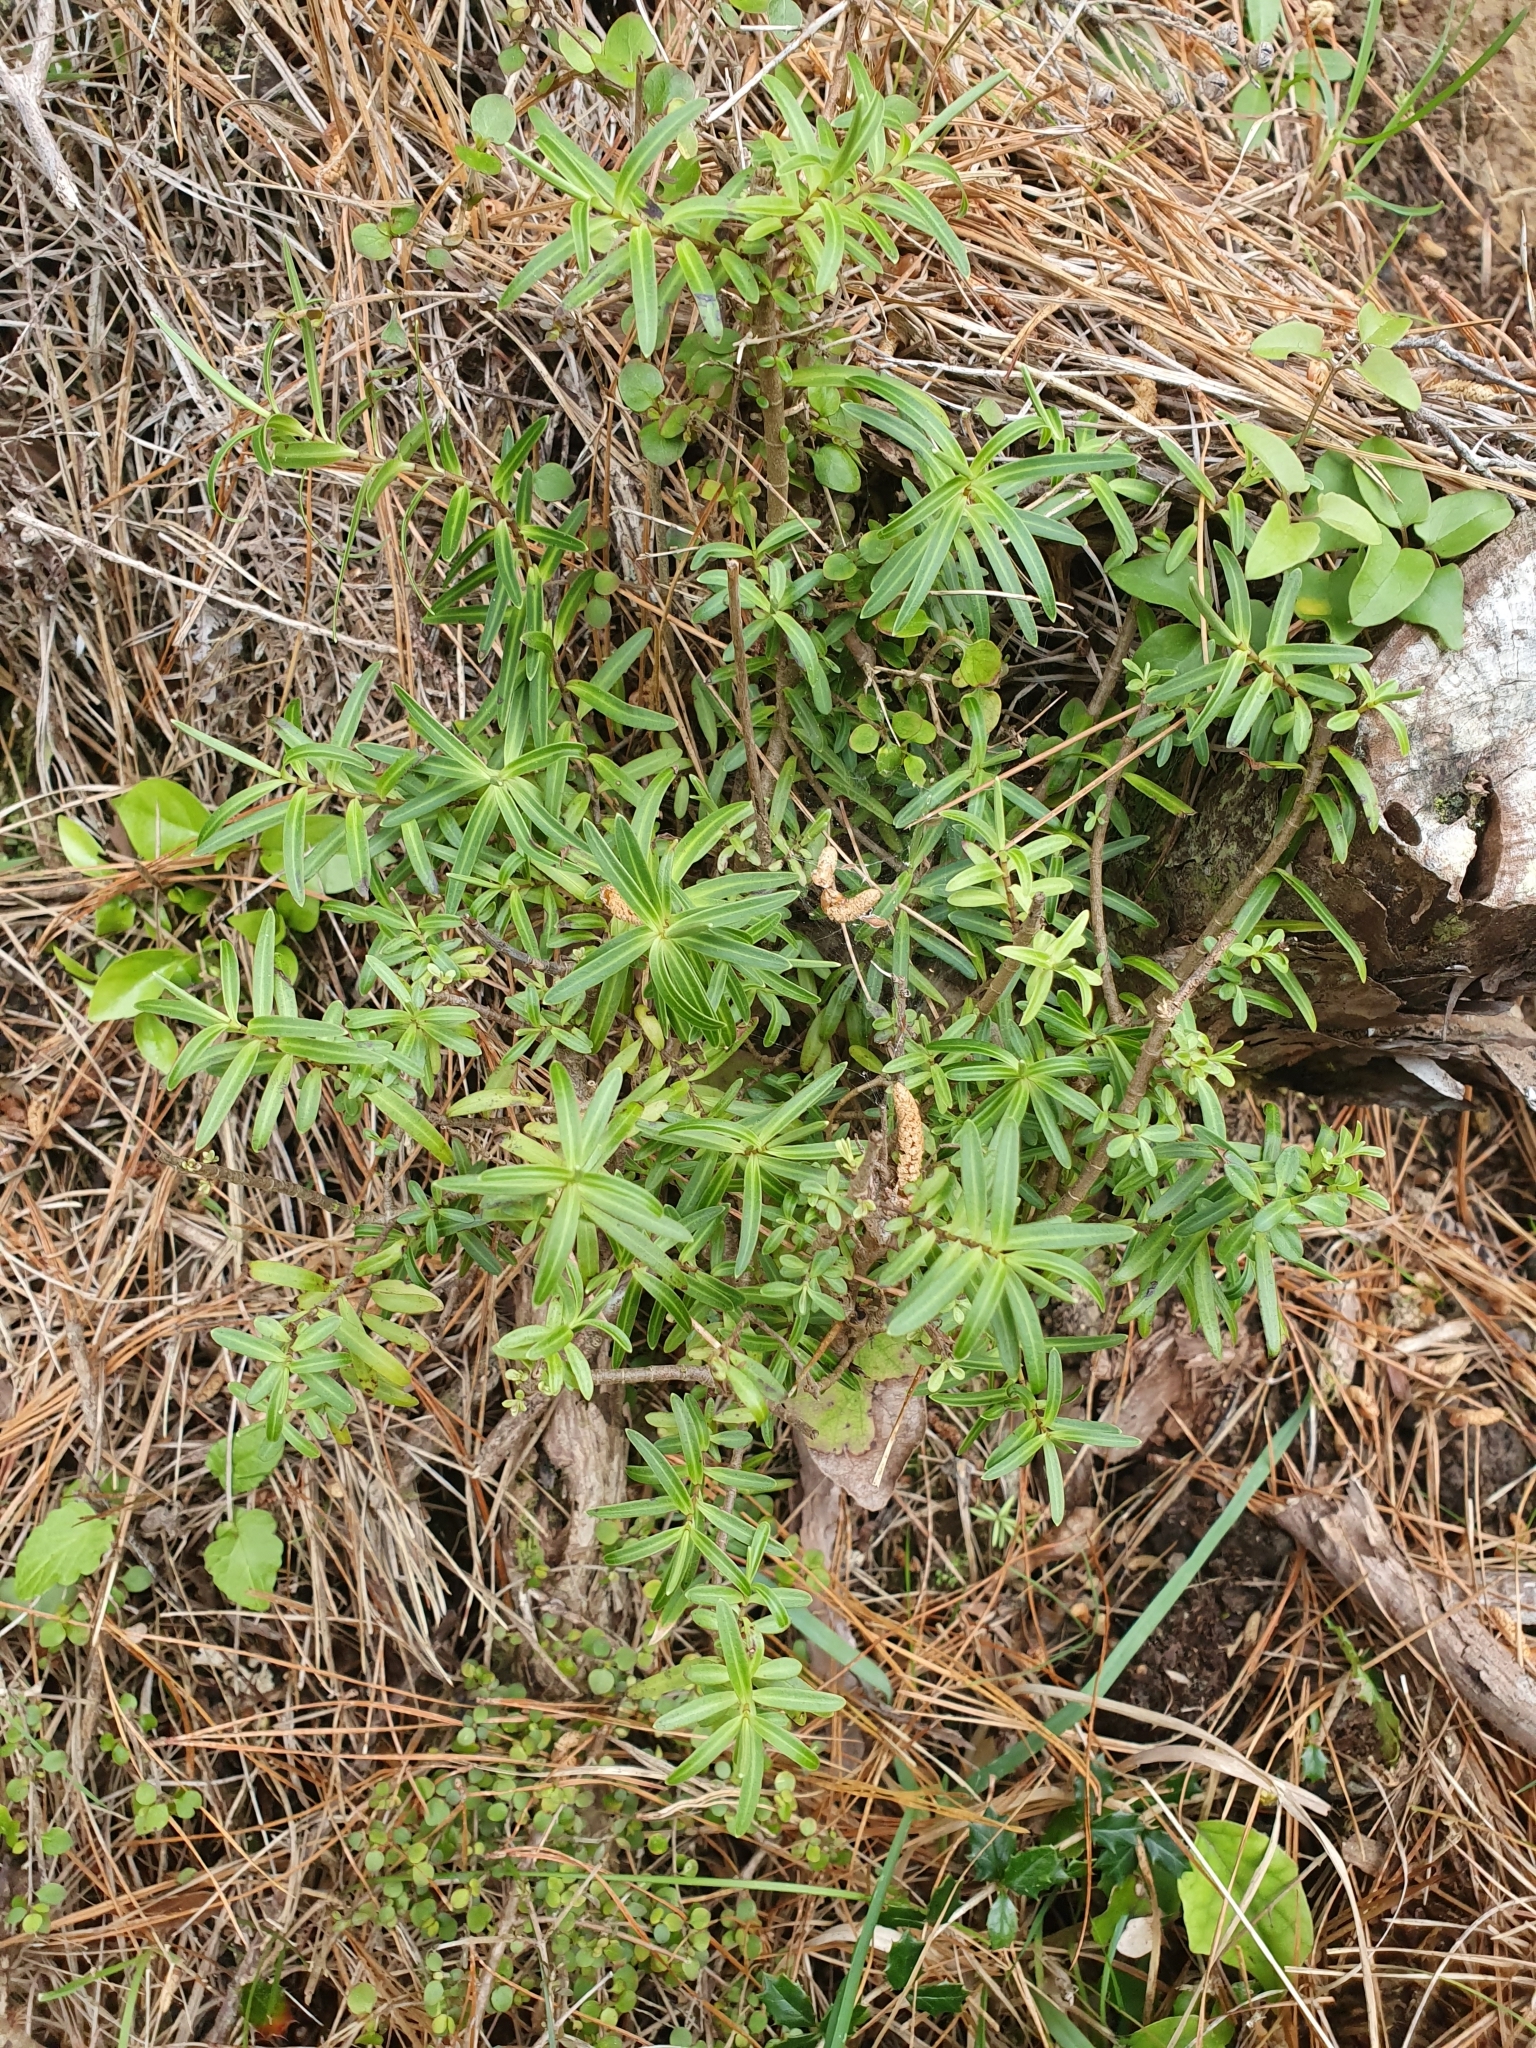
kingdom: Plantae
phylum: Tracheophyta
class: Magnoliopsida
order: Lamiales
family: Plantaginaceae
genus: Veronica
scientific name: Veronica parviflora
